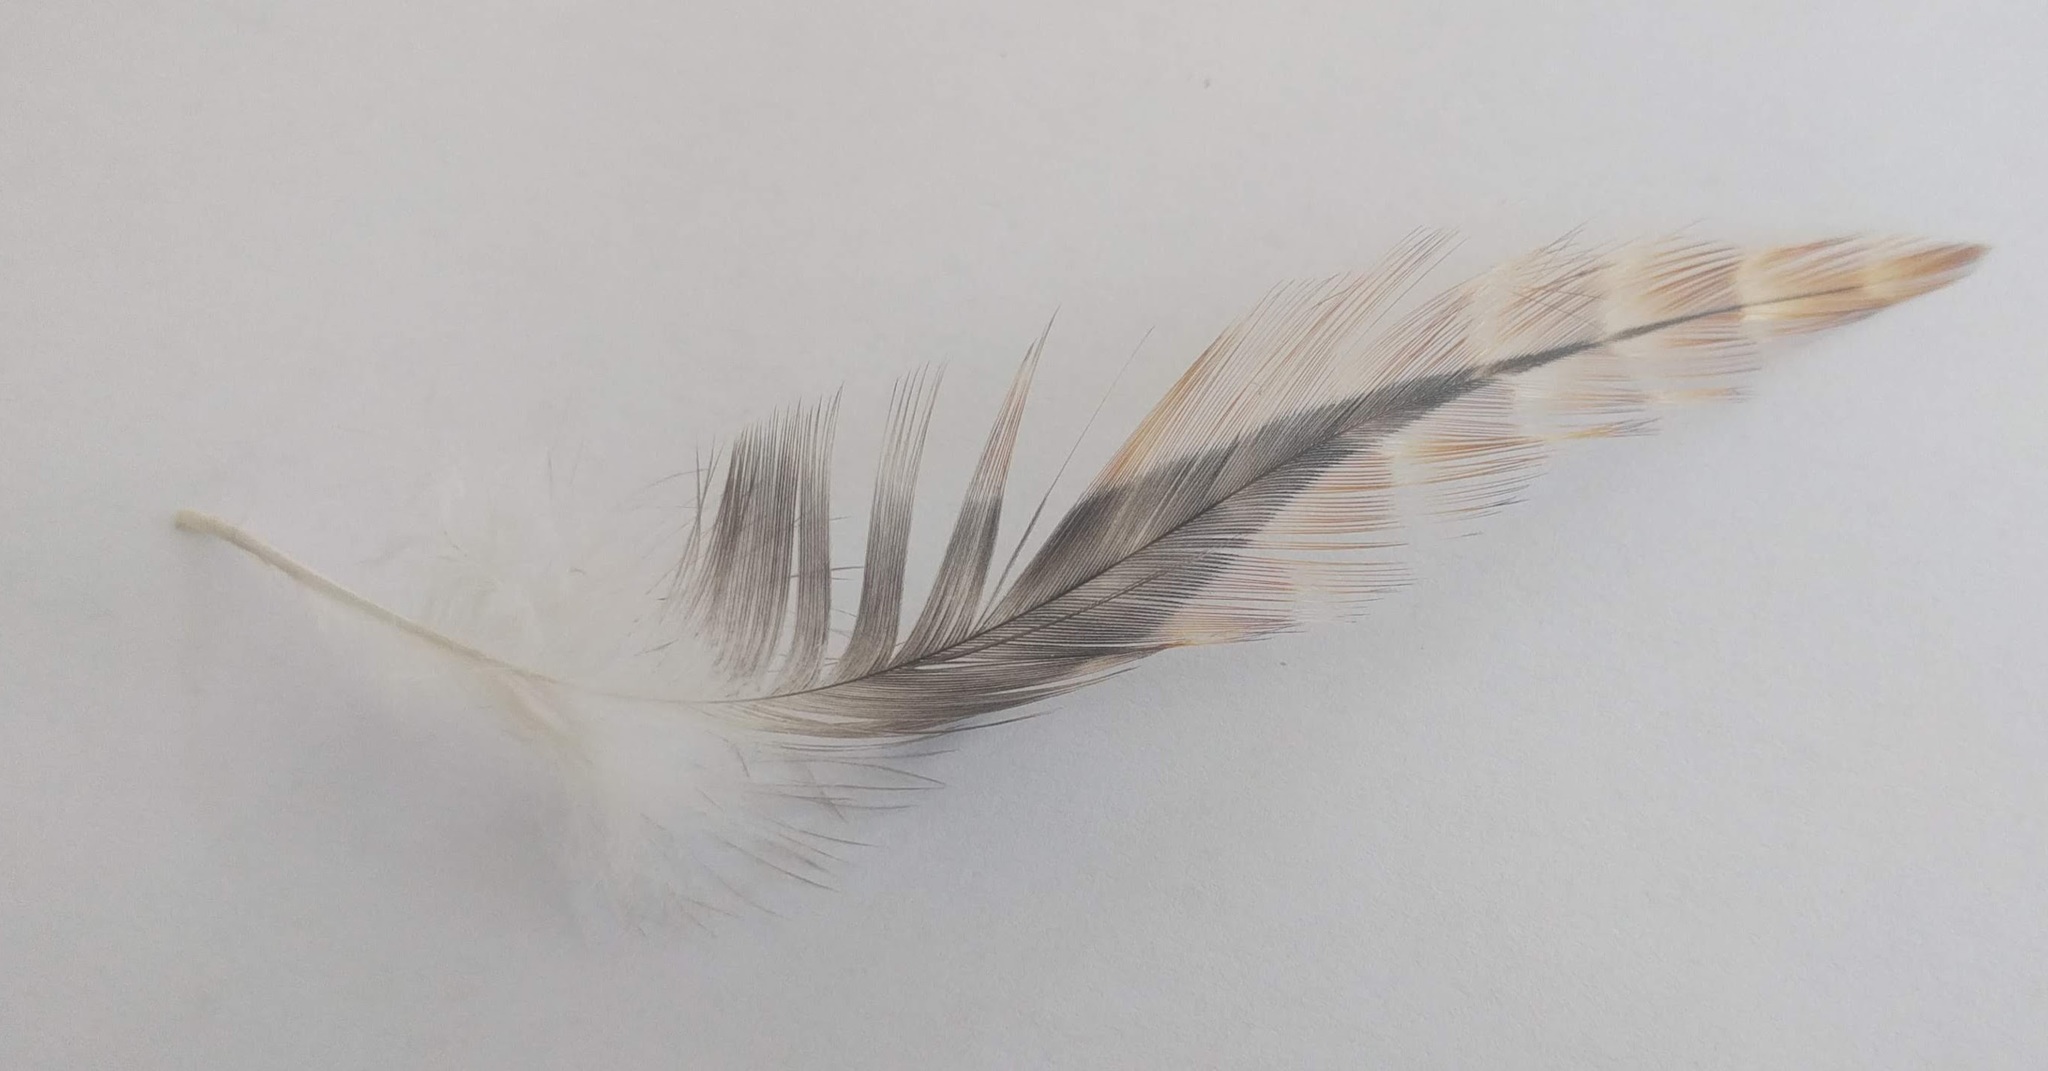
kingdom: Animalia
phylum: Chordata
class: Aves
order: Galliformes
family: Phasianidae
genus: Gallus
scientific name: Gallus gallus
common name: Red junglefowl
